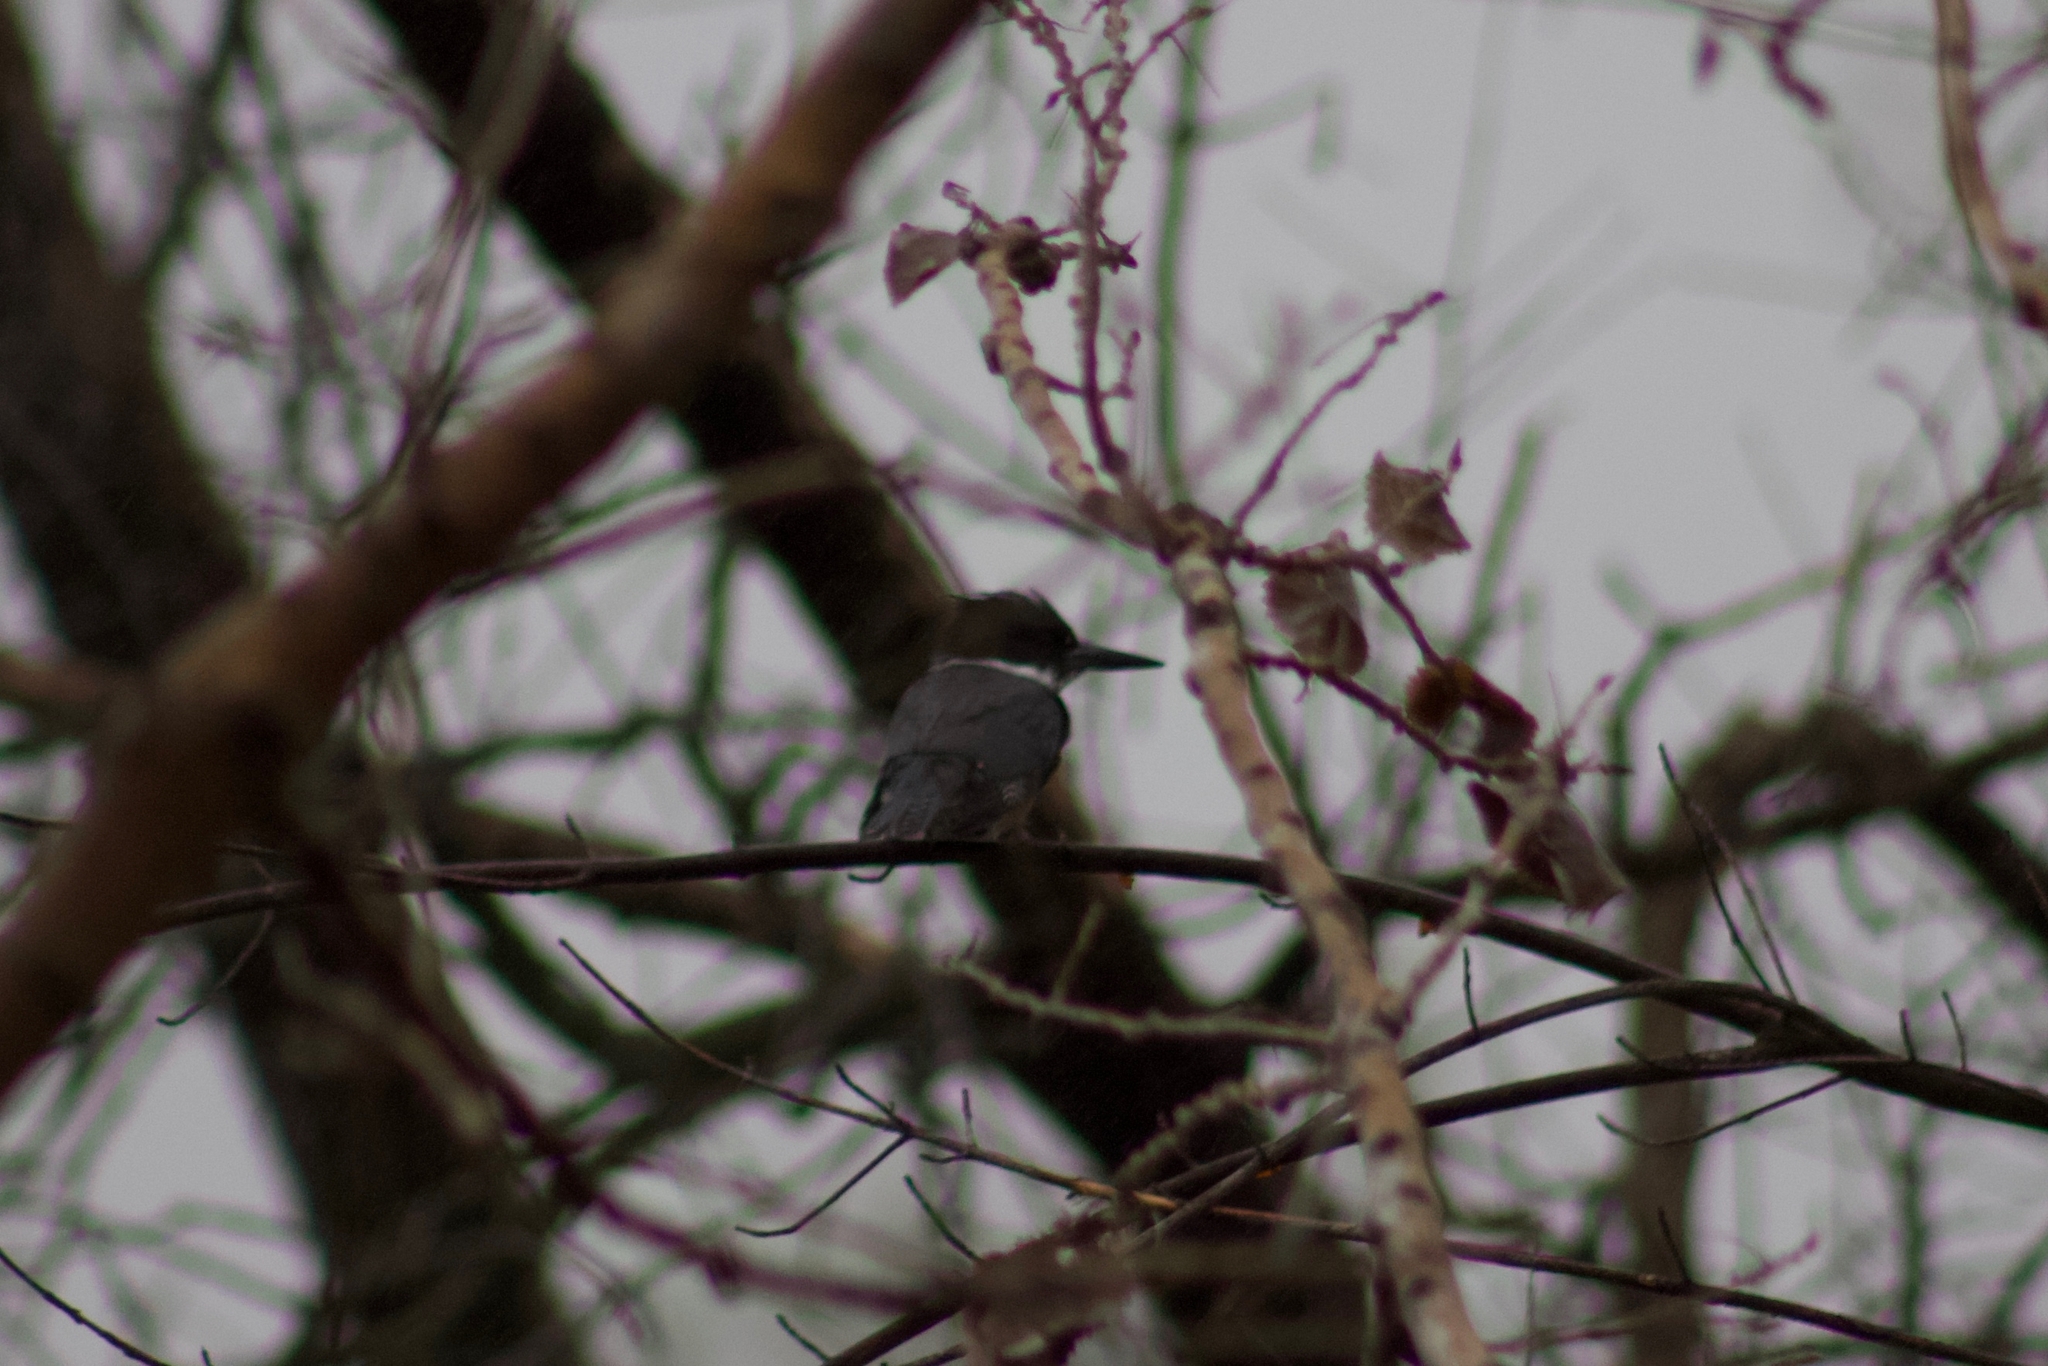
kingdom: Animalia
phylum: Chordata
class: Aves
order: Coraciiformes
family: Alcedinidae
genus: Megaceryle
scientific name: Megaceryle alcyon
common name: Belted kingfisher
